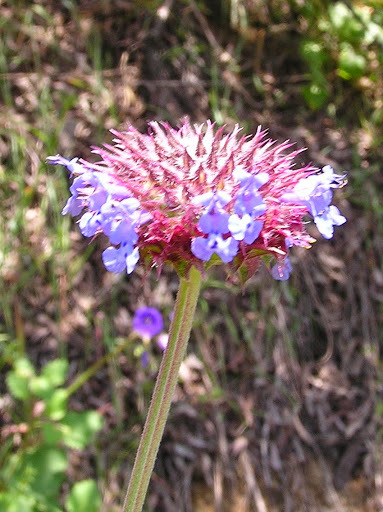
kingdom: Plantae
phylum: Tracheophyta
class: Magnoliopsida
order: Lamiales
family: Lamiaceae
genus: Salvia
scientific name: Salvia columbariae
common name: Chia
